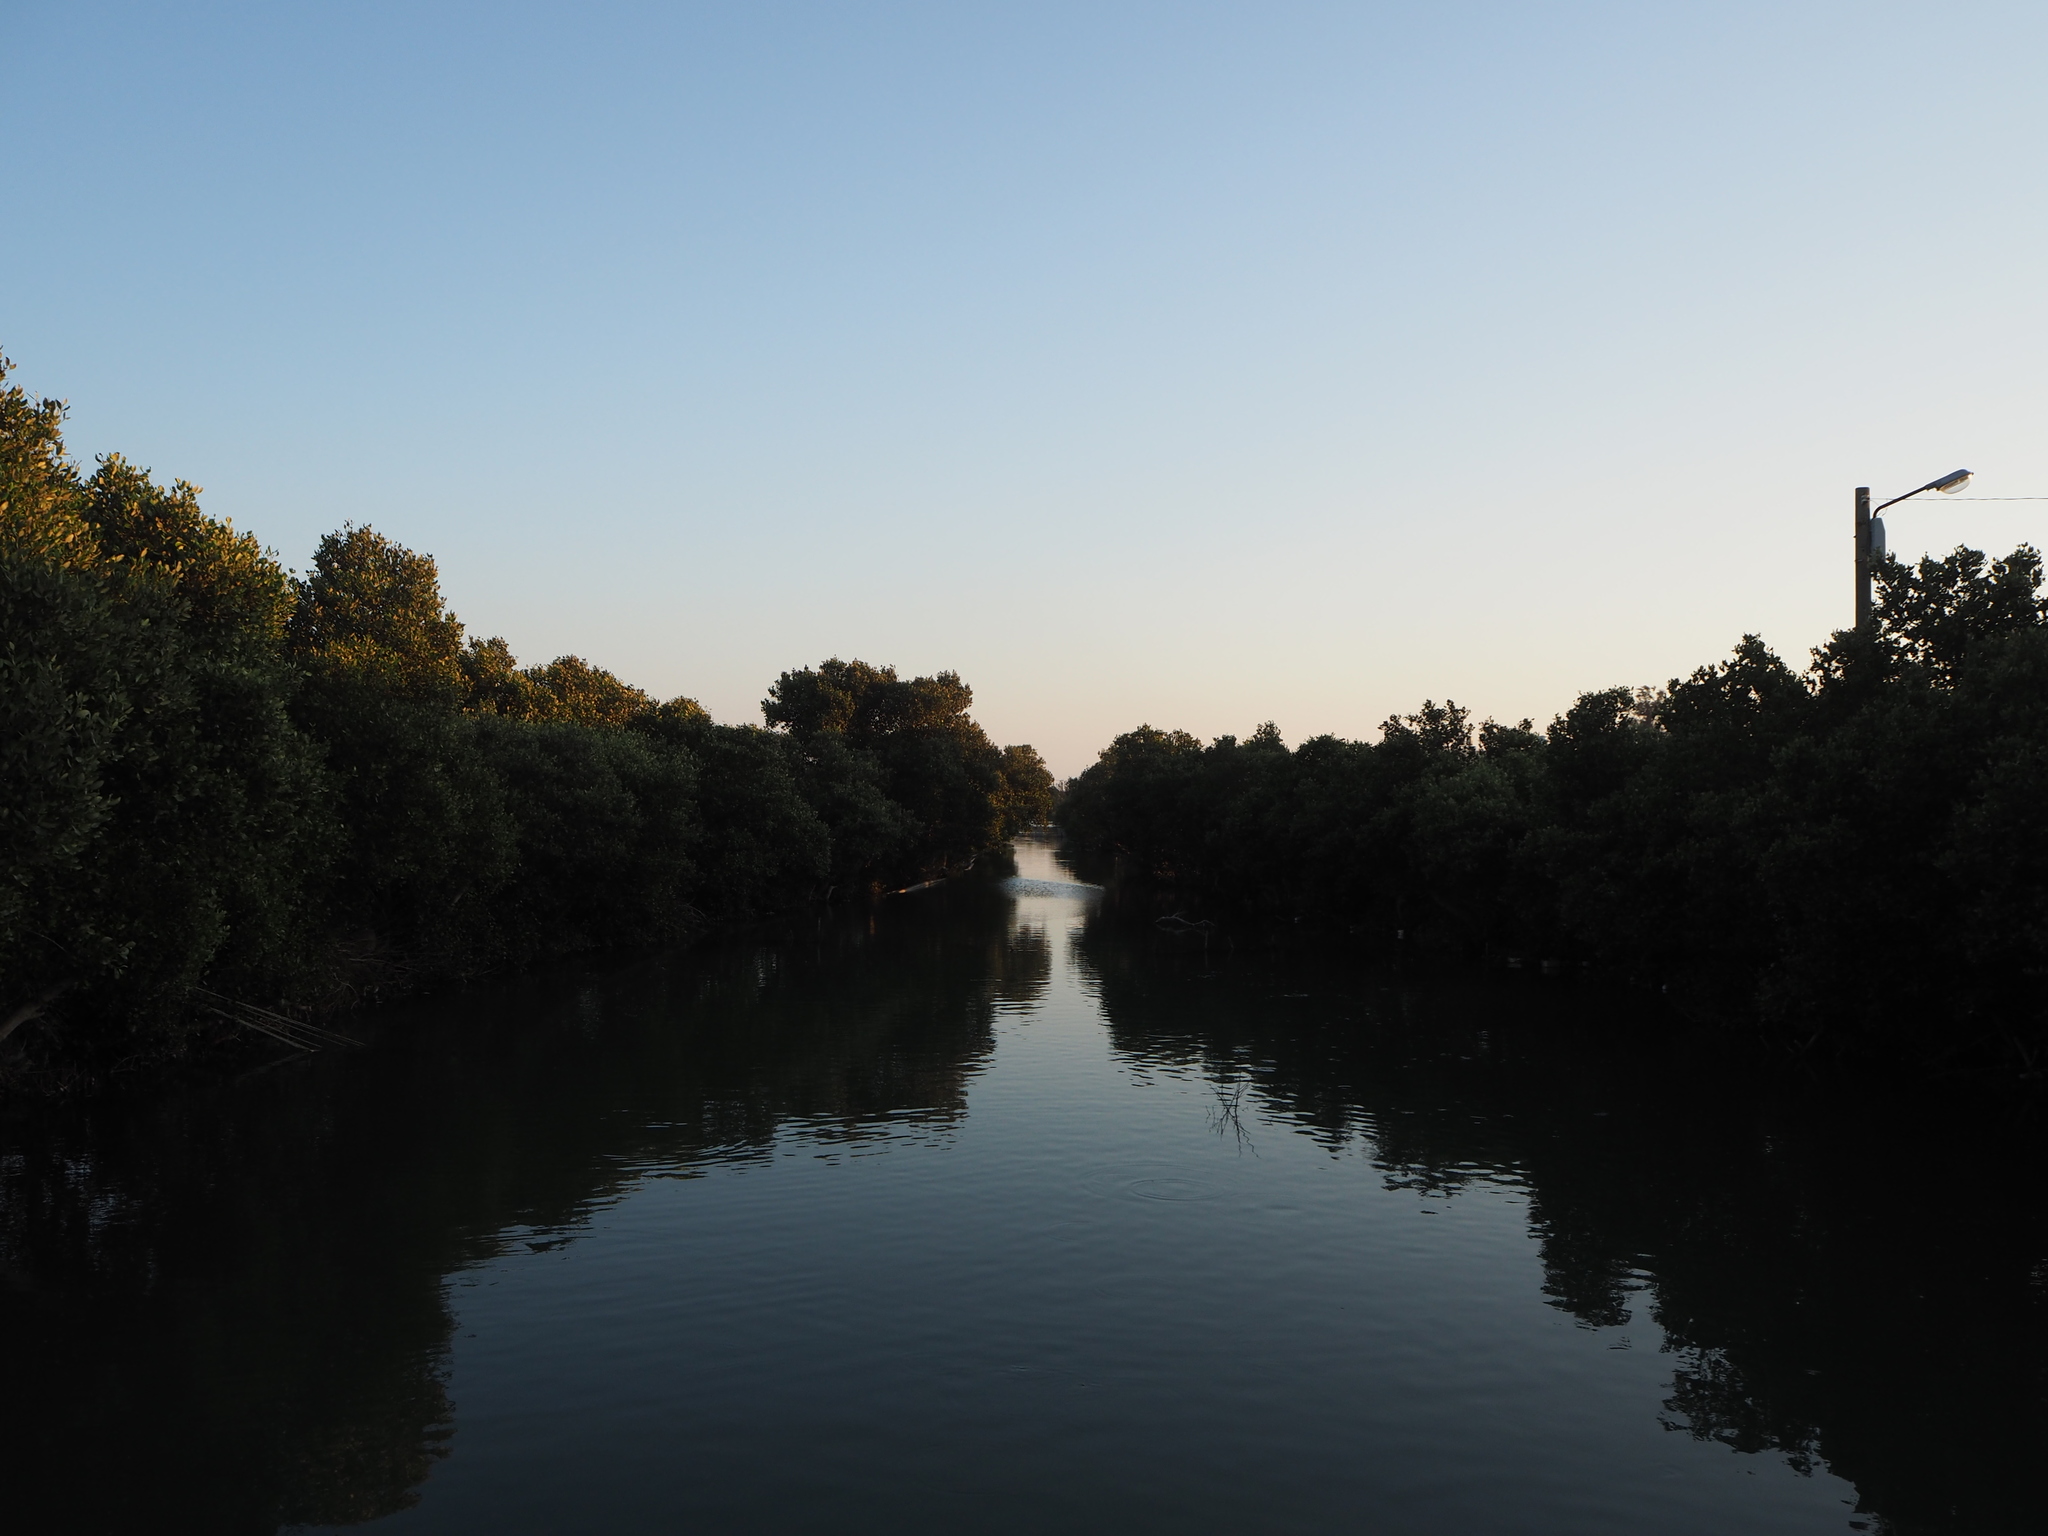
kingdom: Plantae
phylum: Tracheophyta
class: Magnoliopsida
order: Lamiales
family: Acanthaceae
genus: Avicennia
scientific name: Avicennia marina
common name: Gray mangrove
